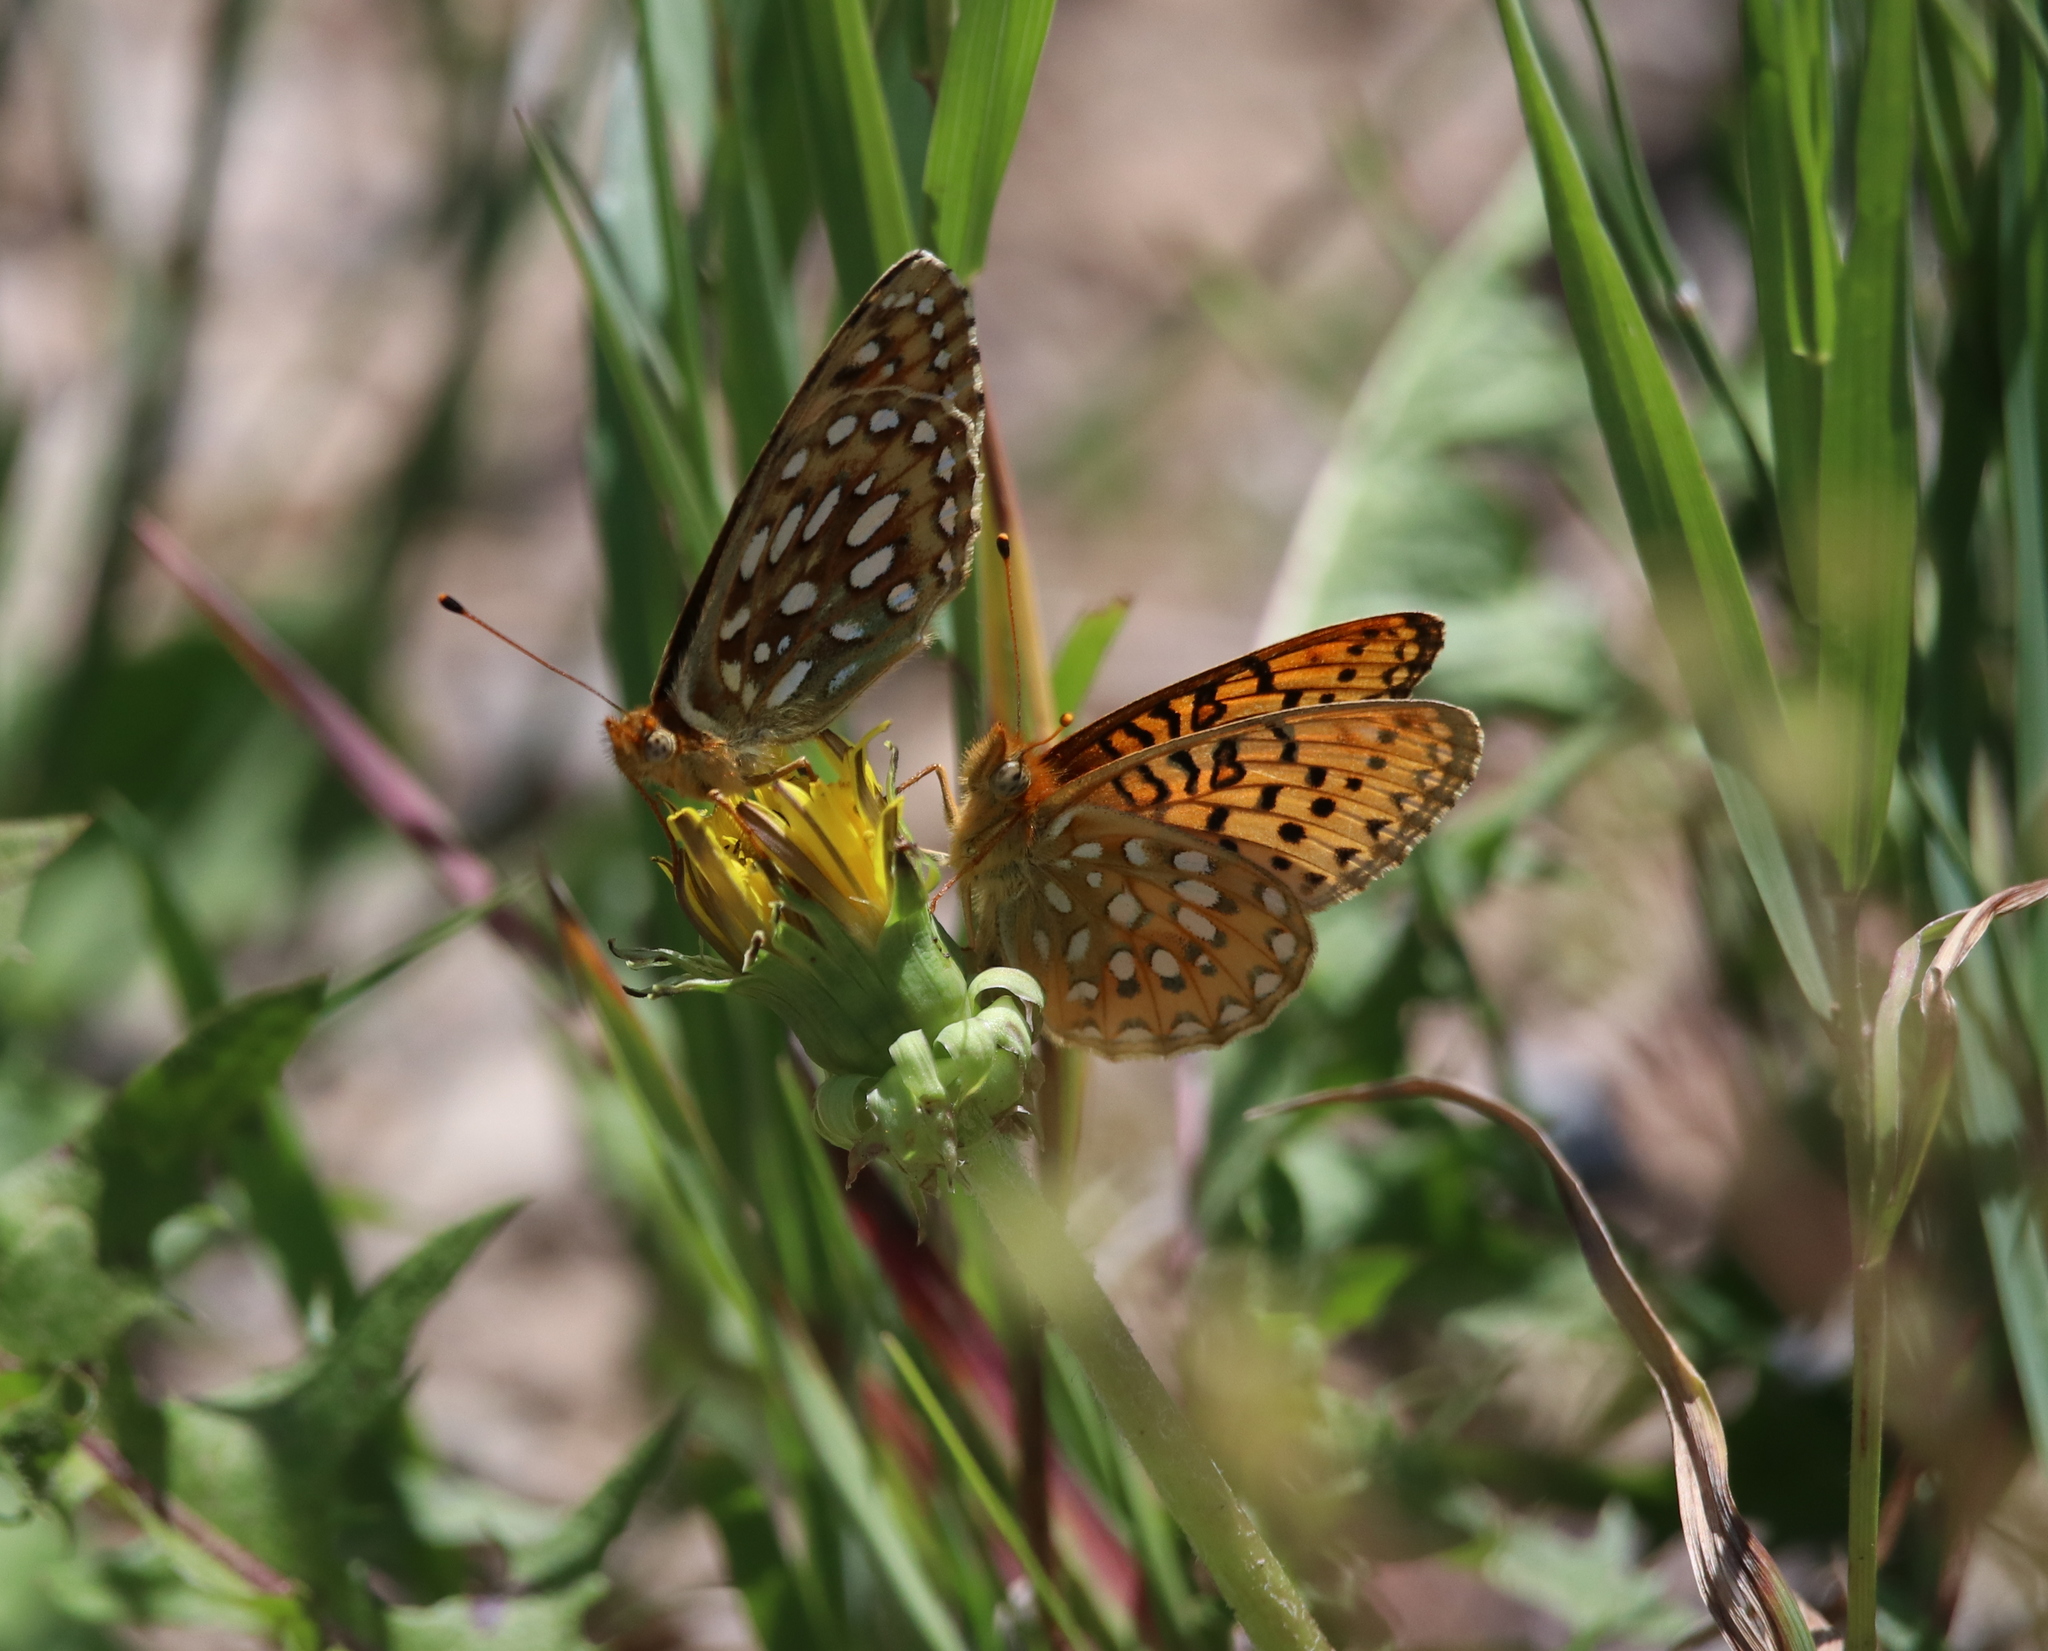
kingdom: Animalia
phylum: Arthropoda
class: Insecta
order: Lepidoptera
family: Nymphalidae
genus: Speyeria
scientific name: Speyeria mormonia
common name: Mormon fritillary
